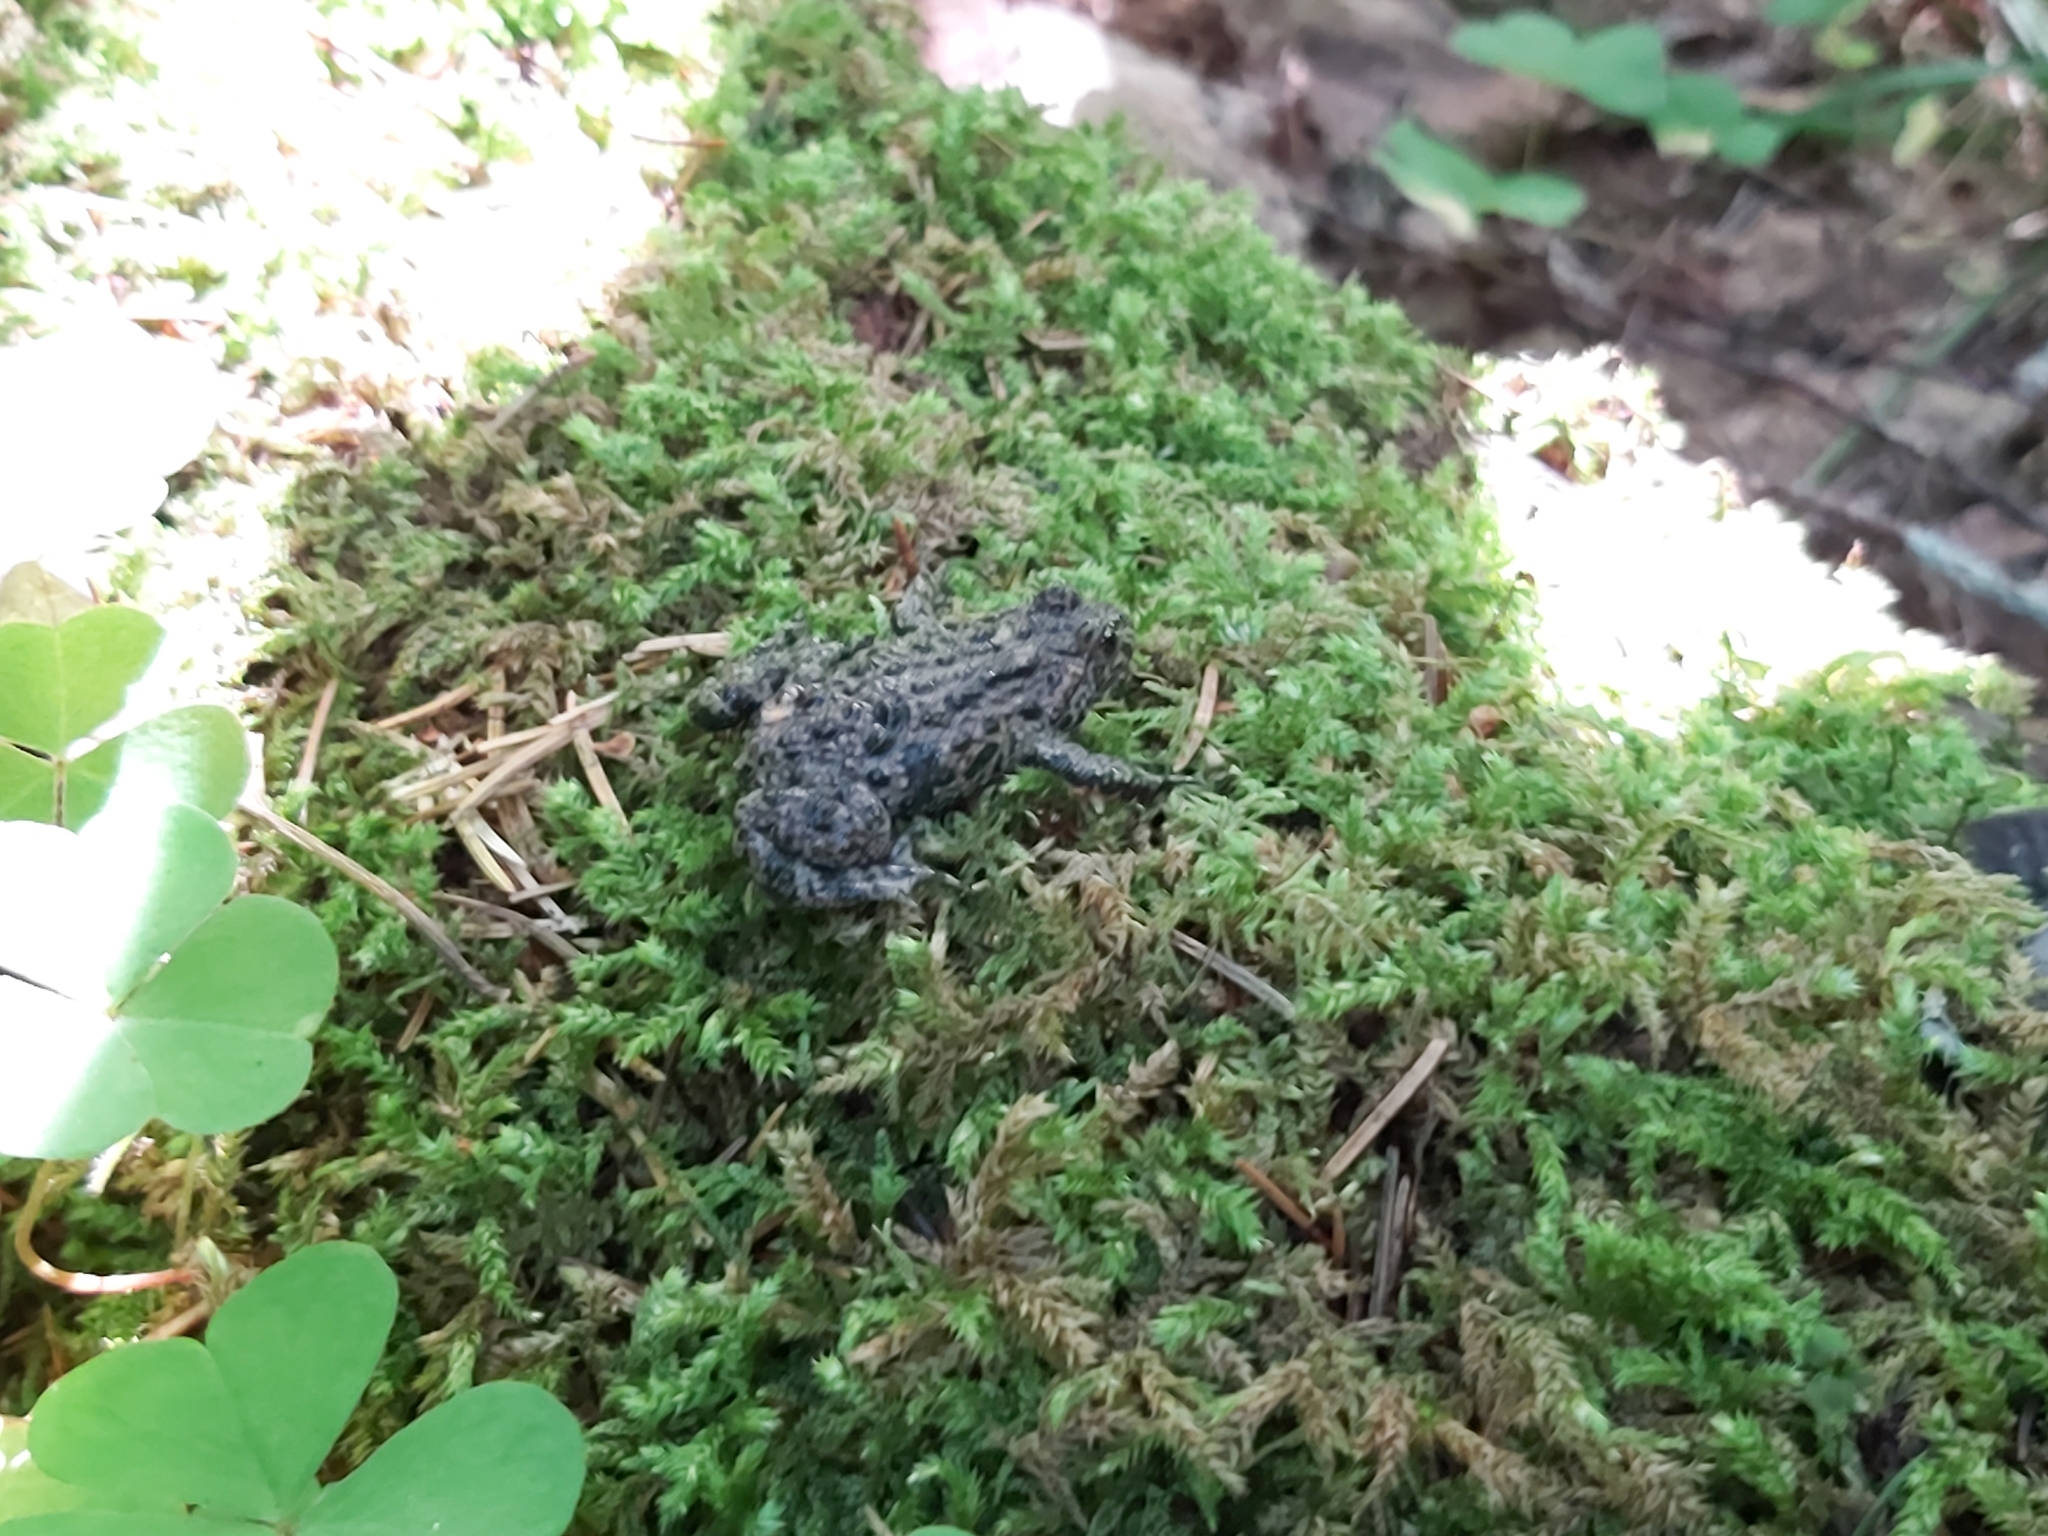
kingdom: Animalia
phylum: Chordata
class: Amphibia
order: Anura
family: Bombinatoridae
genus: Bombina
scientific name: Bombina bombina
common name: Fire-bellied toad
